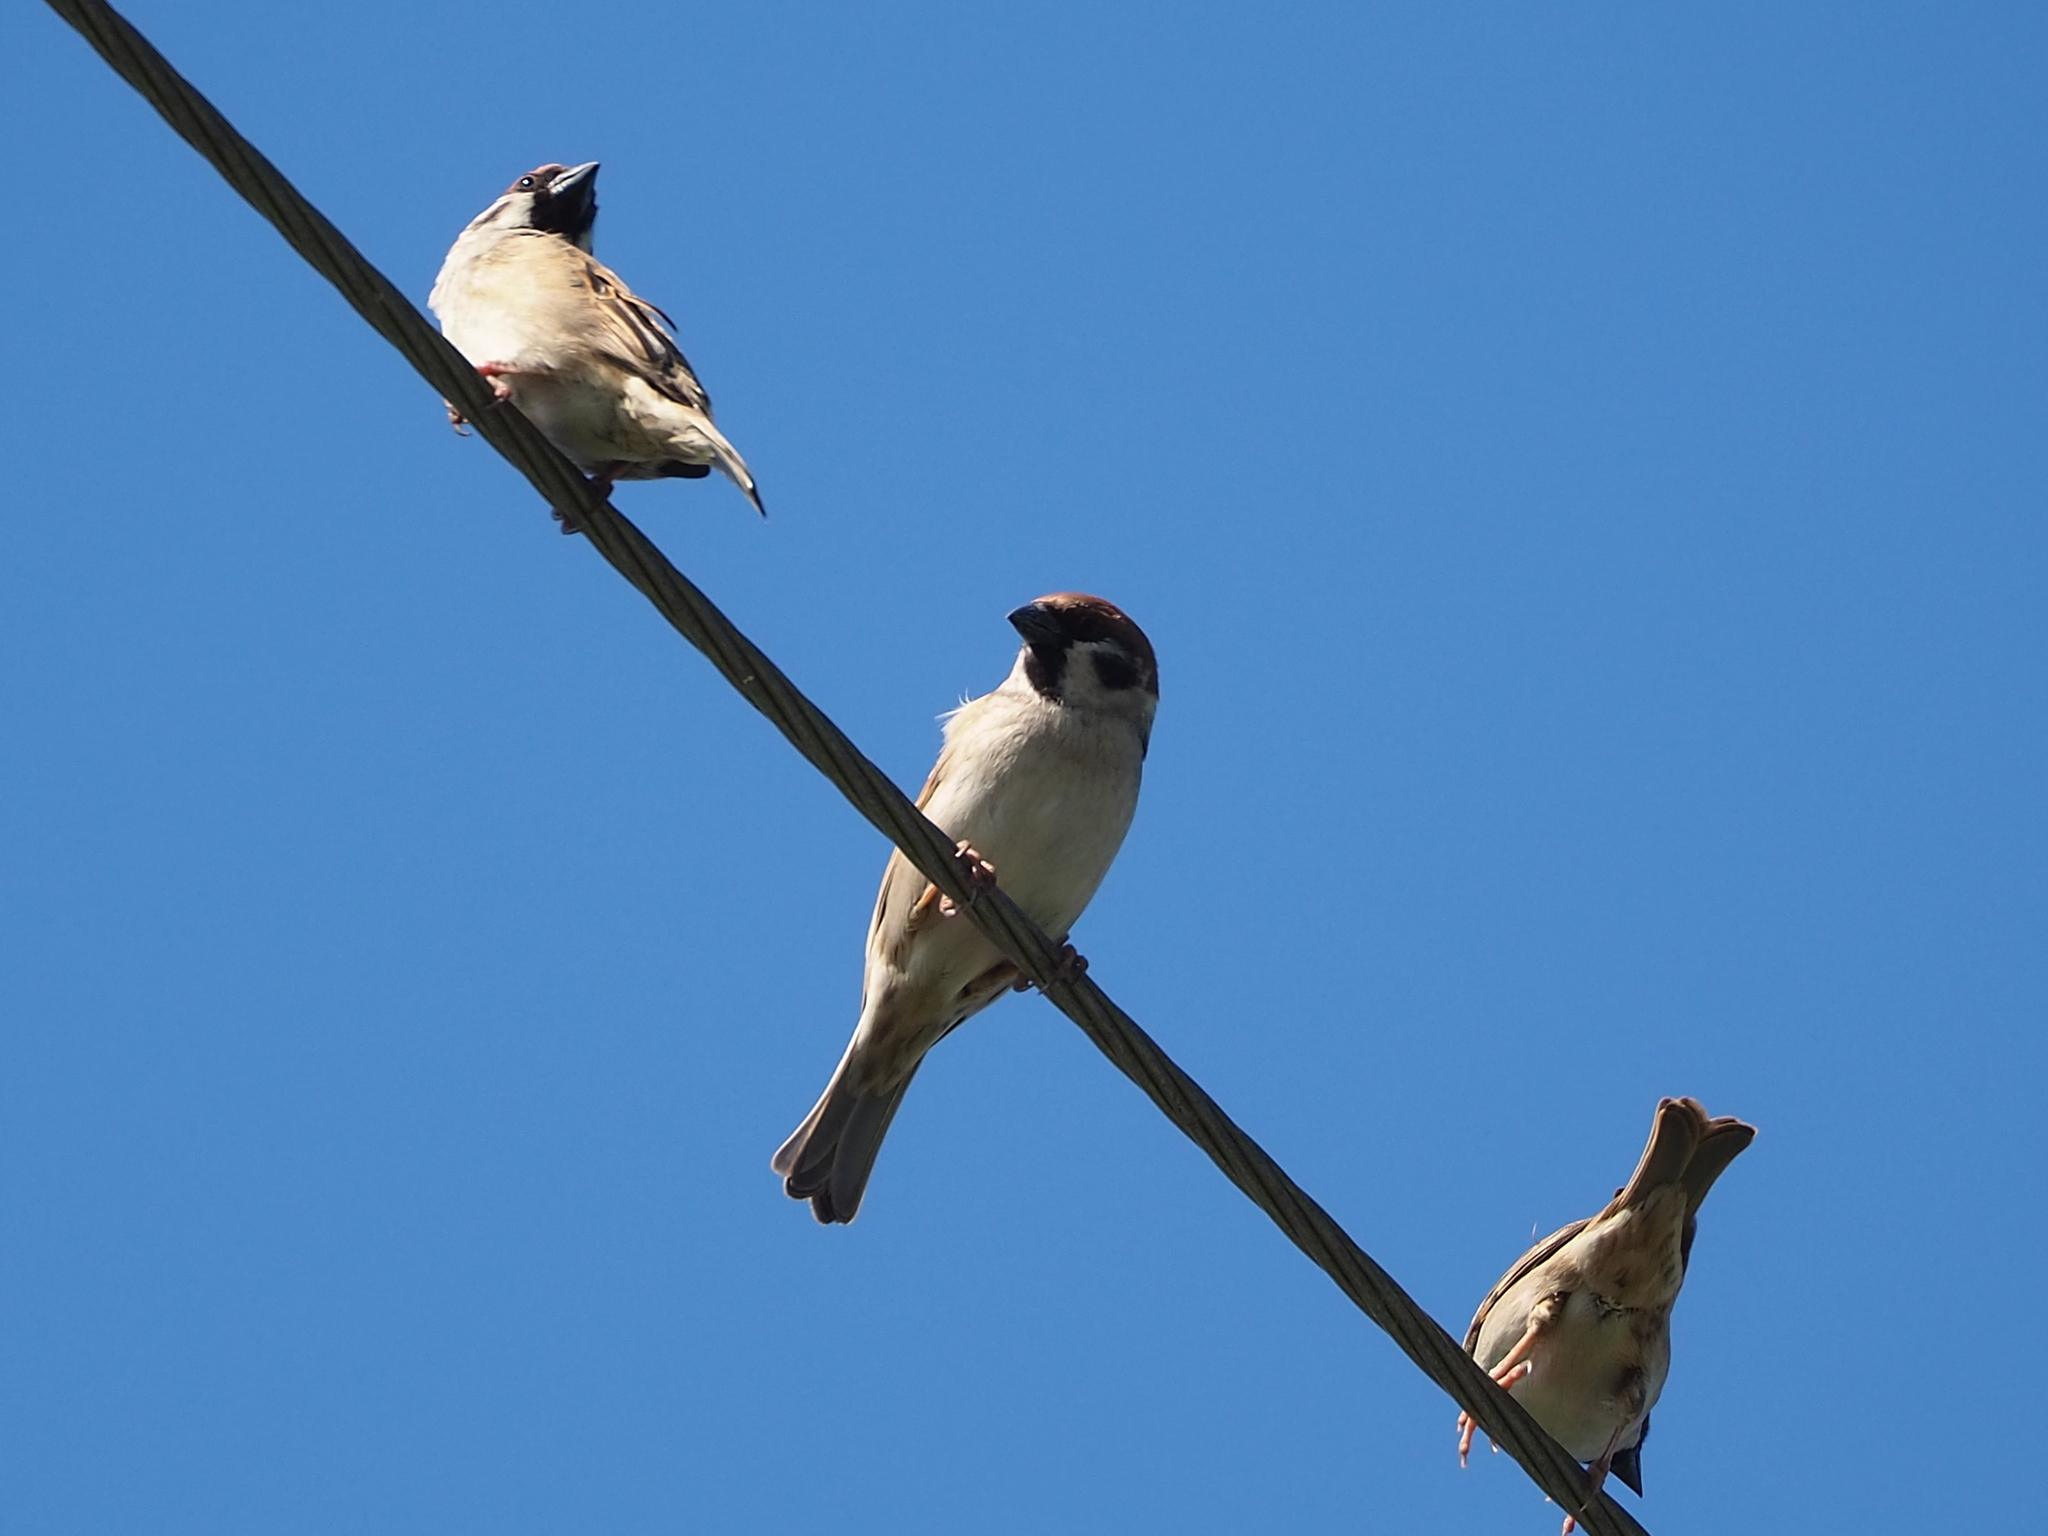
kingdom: Animalia
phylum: Chordata
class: Aves
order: Passeriformes
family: Passeridae
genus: Passer
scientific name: Passer montanus
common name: Eurasian tree sparrow
